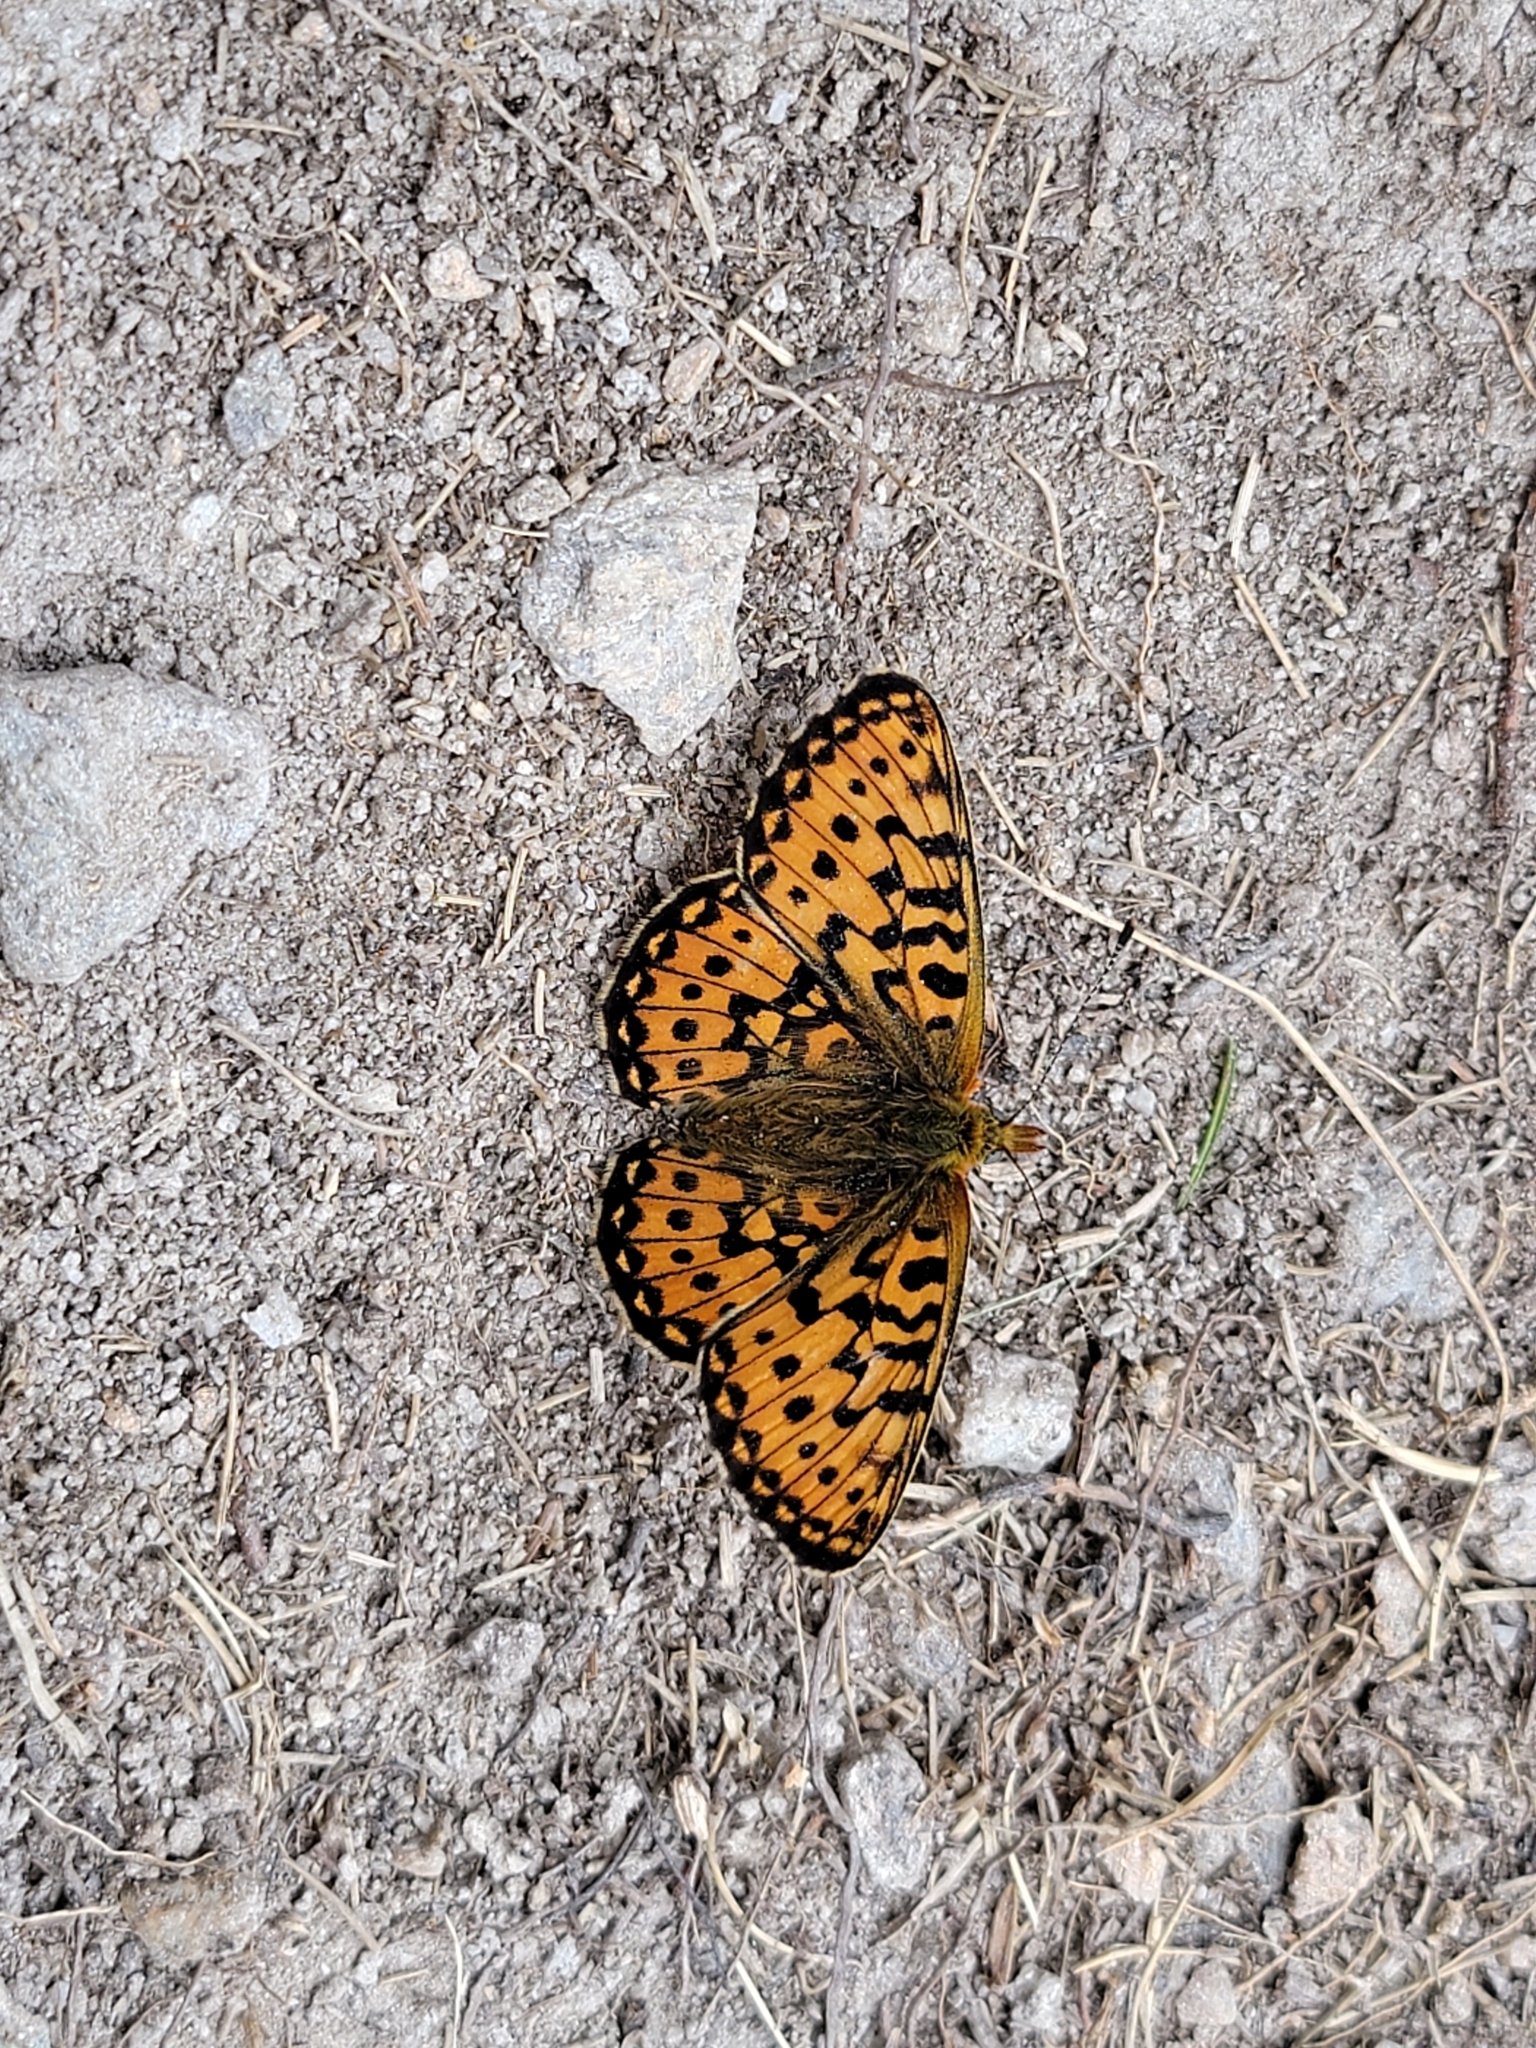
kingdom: Animalia
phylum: Arthropoda
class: Insecta
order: Lepidoptera
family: Nymphalidae
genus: Clossiana
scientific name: Clossiana euphrosyne
